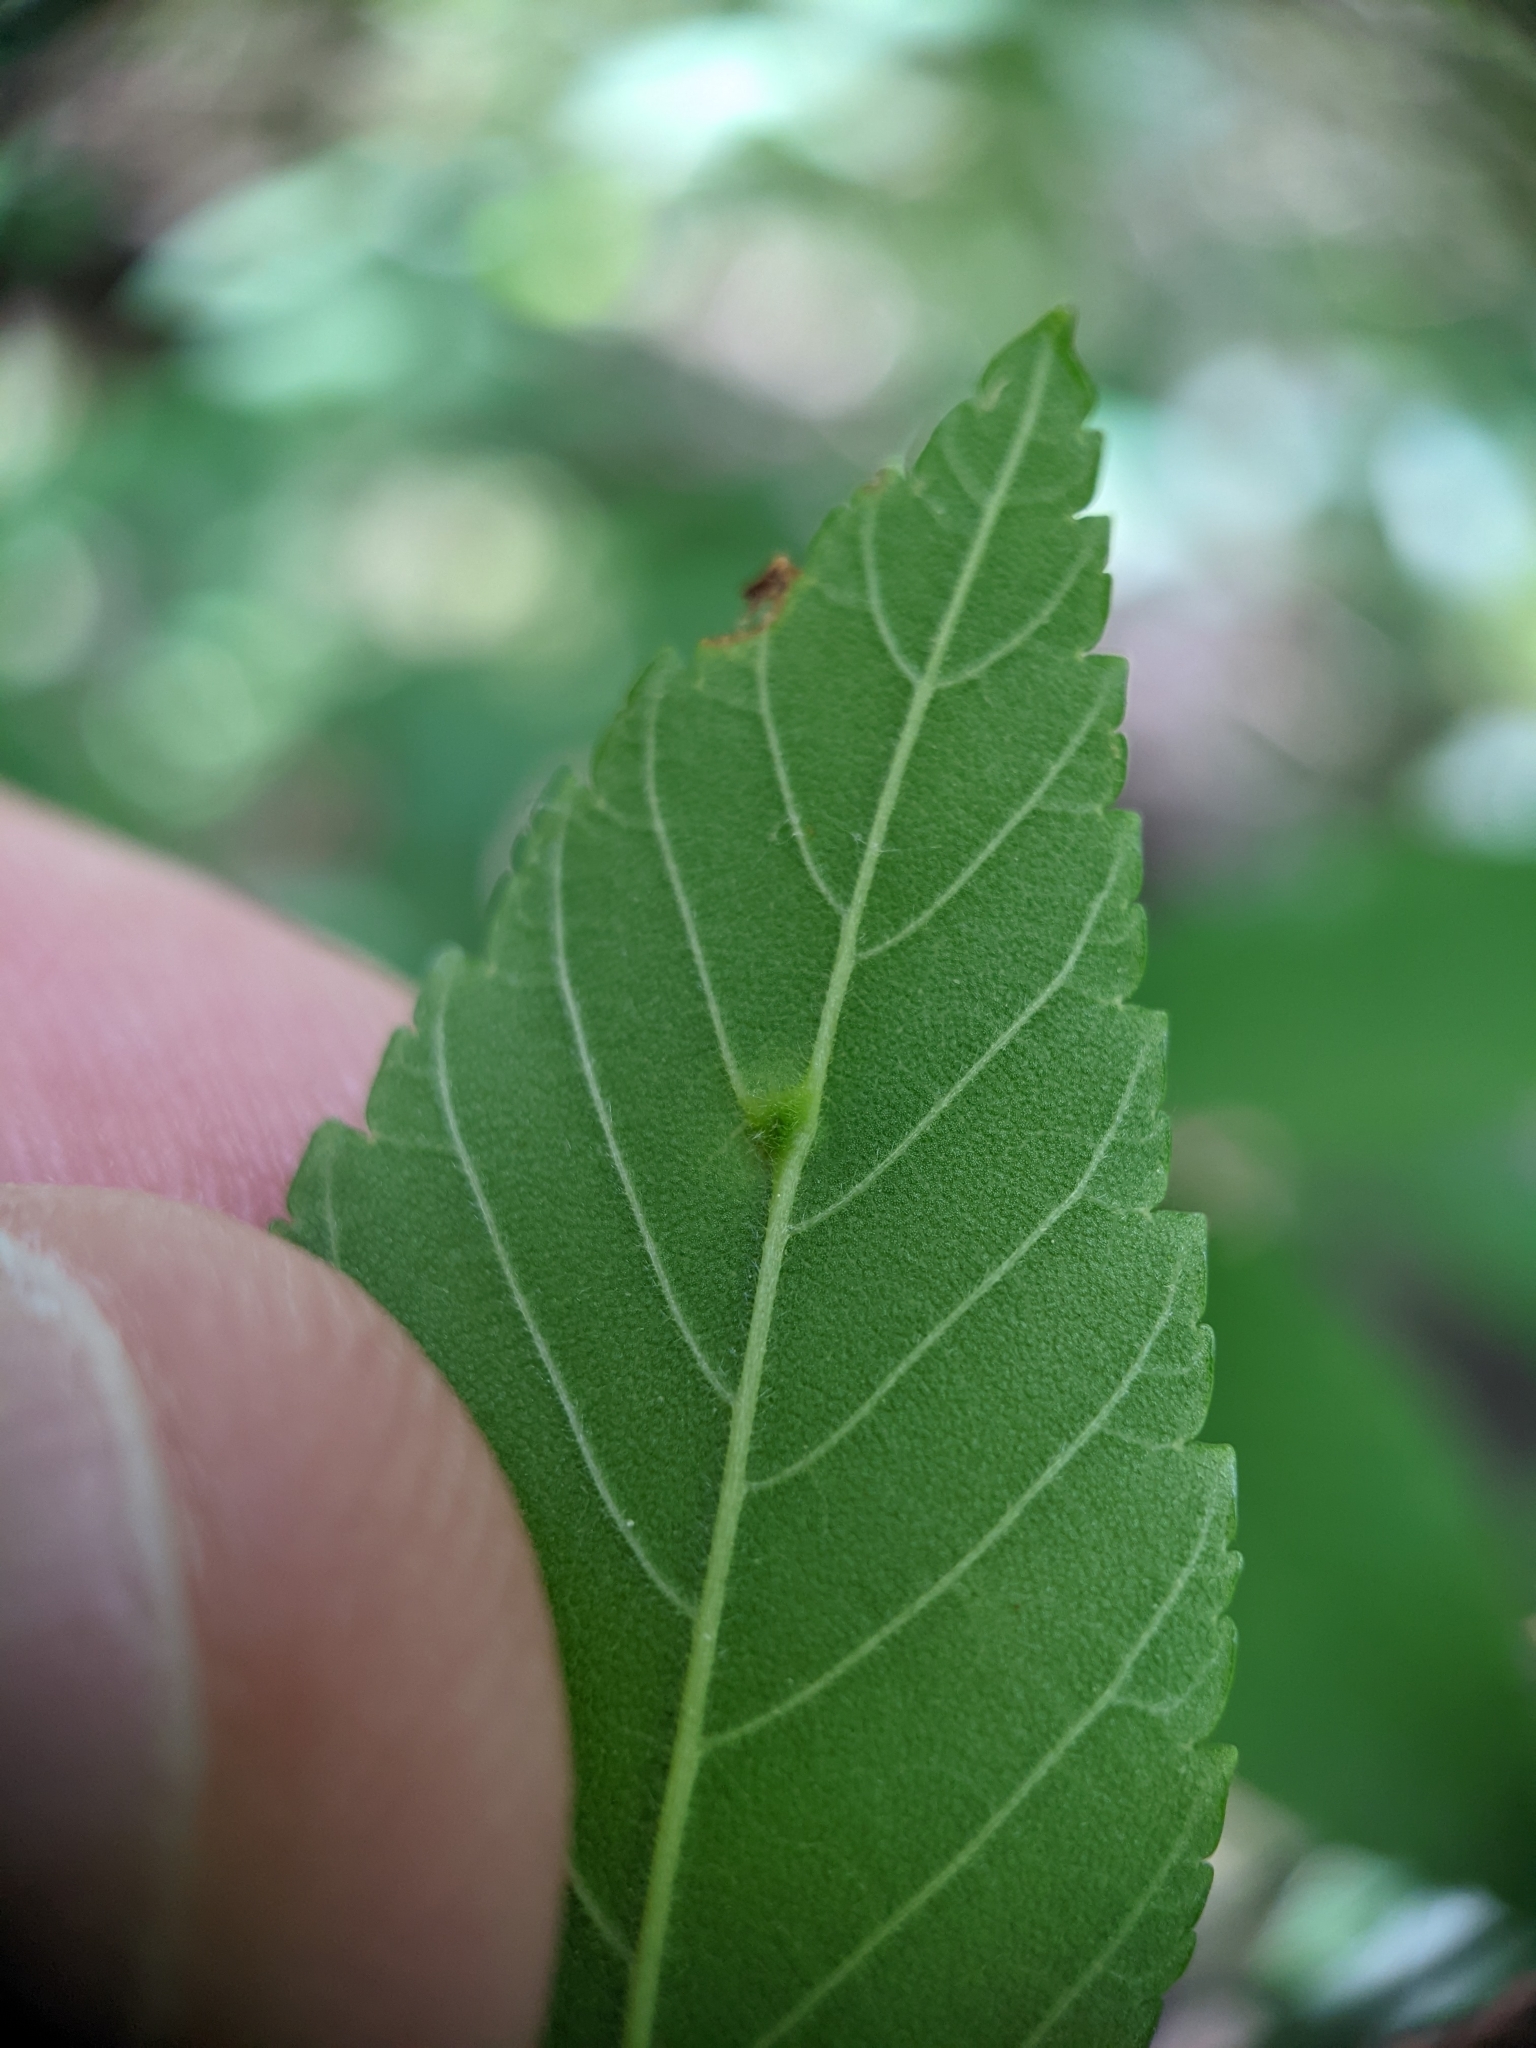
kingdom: Animalia
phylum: Arthropoda
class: Arachnida
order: Trombidiformes
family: Eriophyidae
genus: Aceria
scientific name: Aceria
